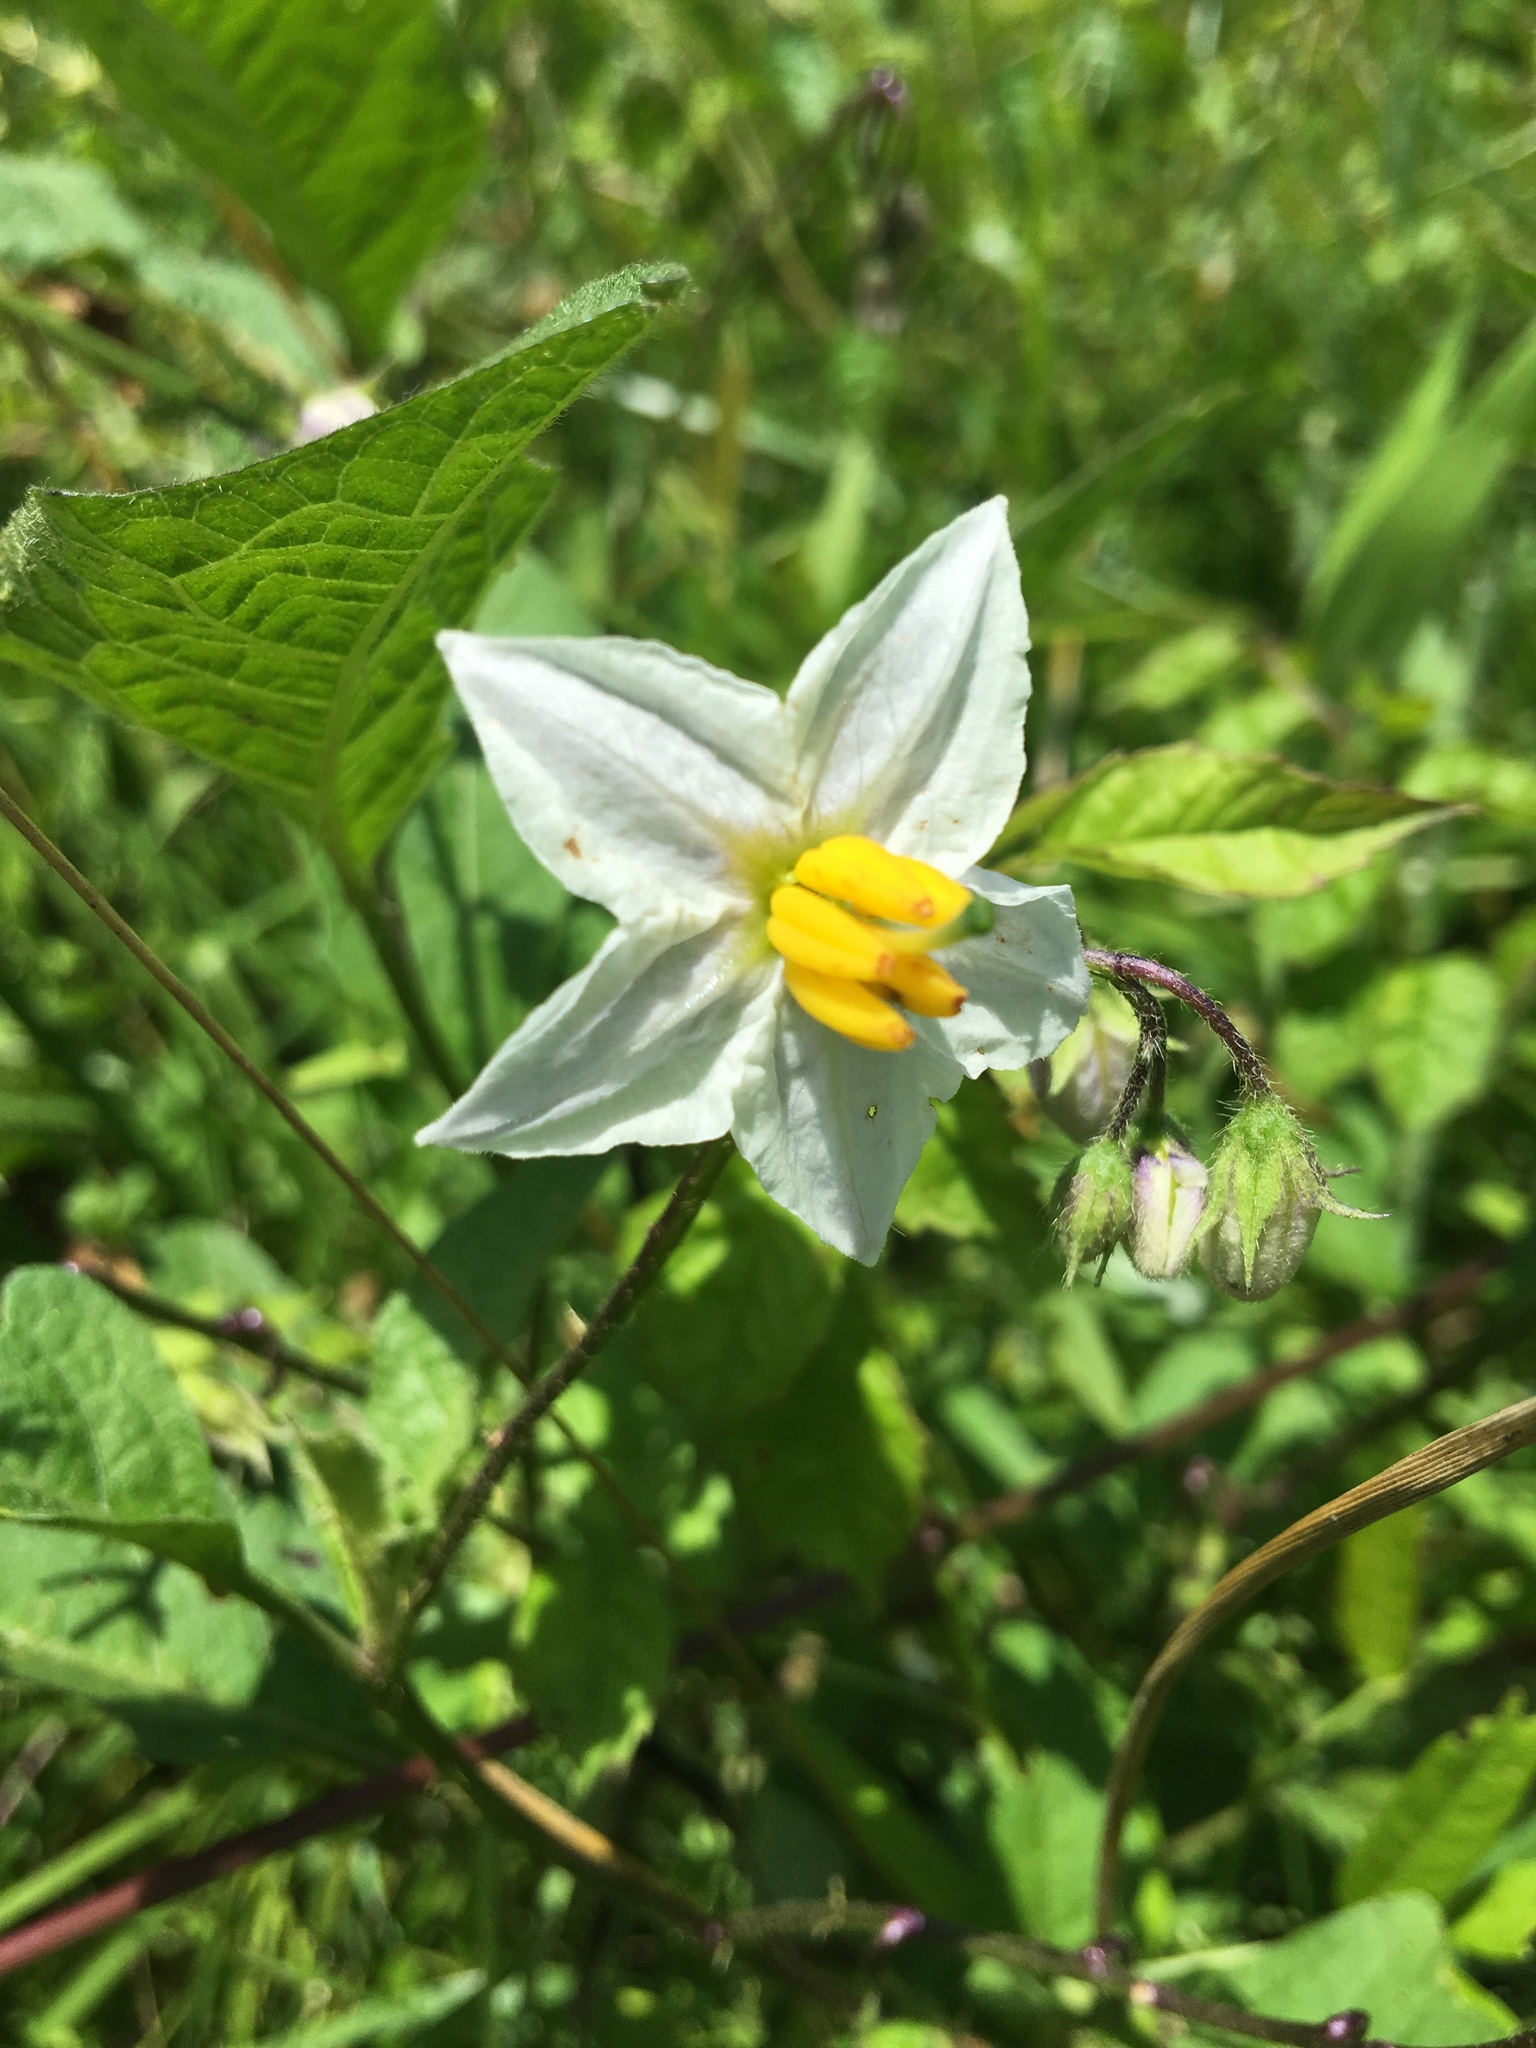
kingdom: Plantae
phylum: Tracheophyta
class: Magnoliopsida
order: Solanales
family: Solanaceae
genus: Solanum
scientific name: Solanum carolinense
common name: Horse-nettle
